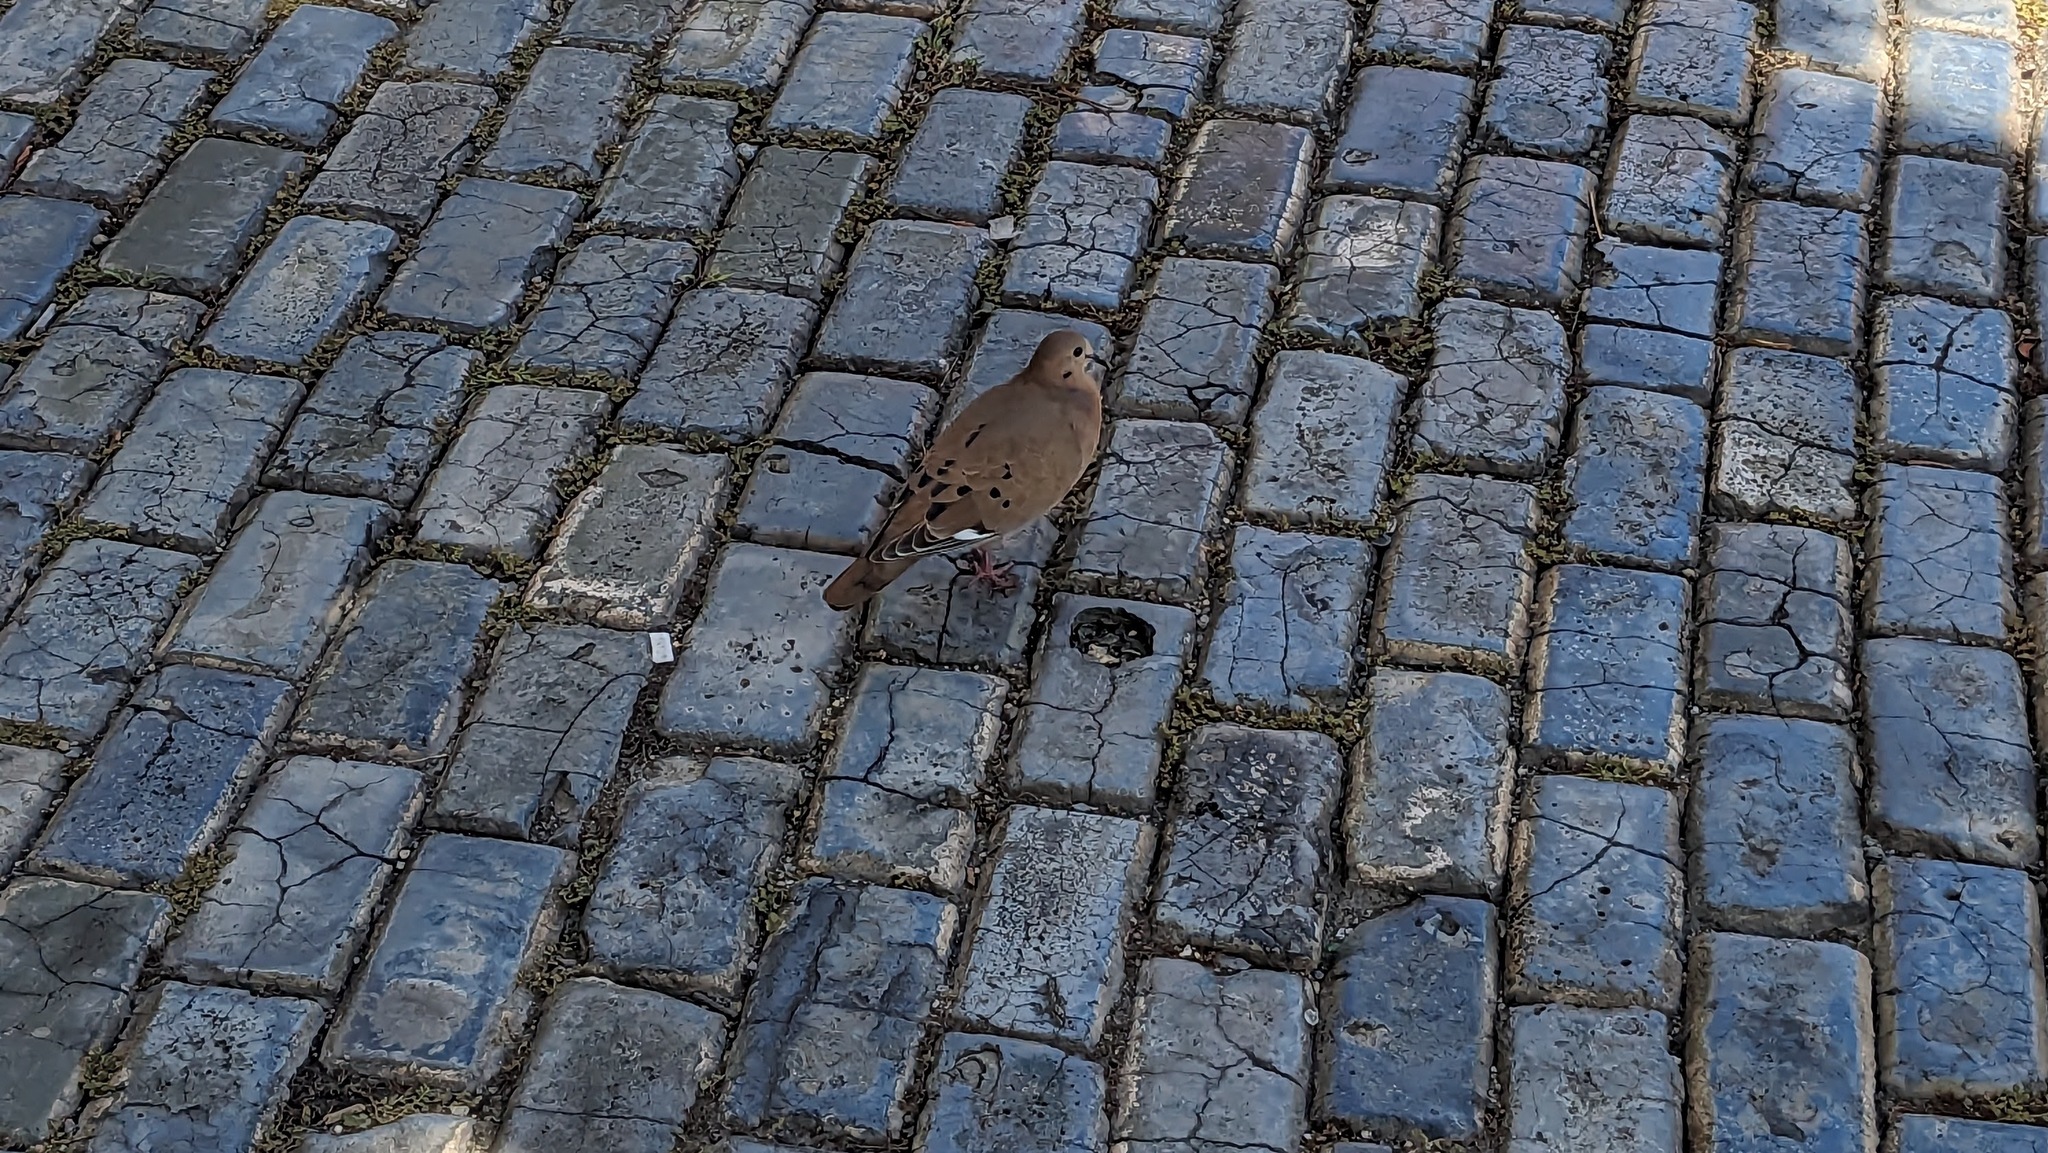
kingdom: Animalia
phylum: Chordata
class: Aves
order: Columbiformes
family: Columbidae
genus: Zenaida
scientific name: Zenaida aurita
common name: Zenaida dove
